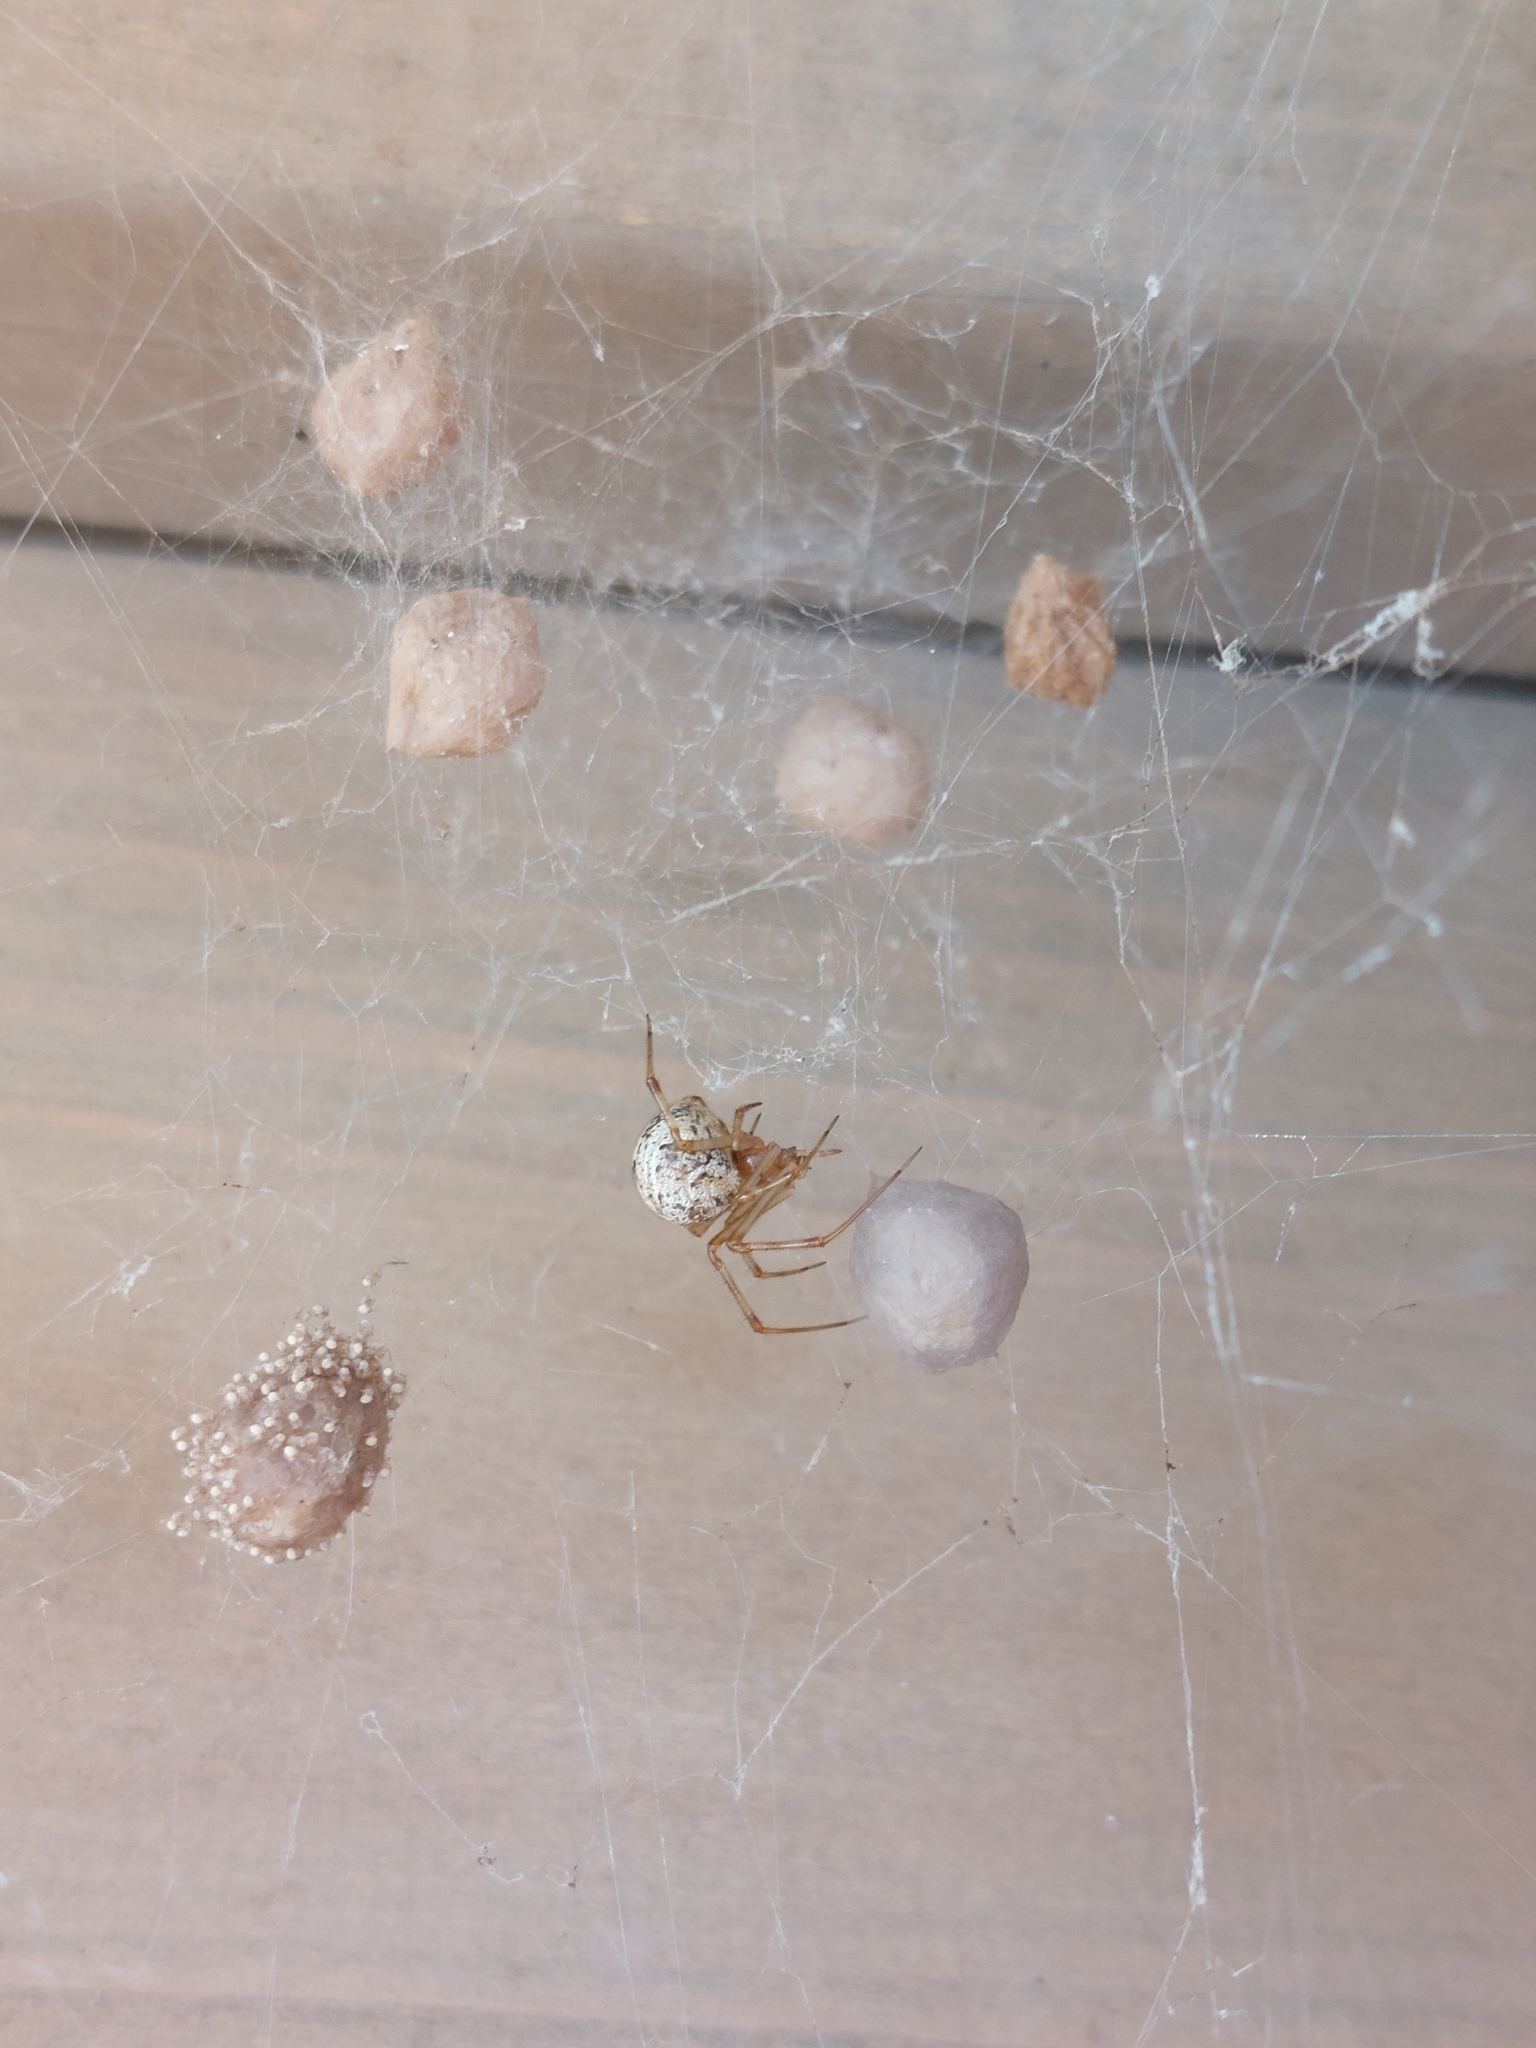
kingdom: Animalia
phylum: Arthropoda
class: Arachnida
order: Araneae
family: Theridiidae
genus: Parasteatoda
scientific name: Parasteatoda tepidariorum
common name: Common house spider
